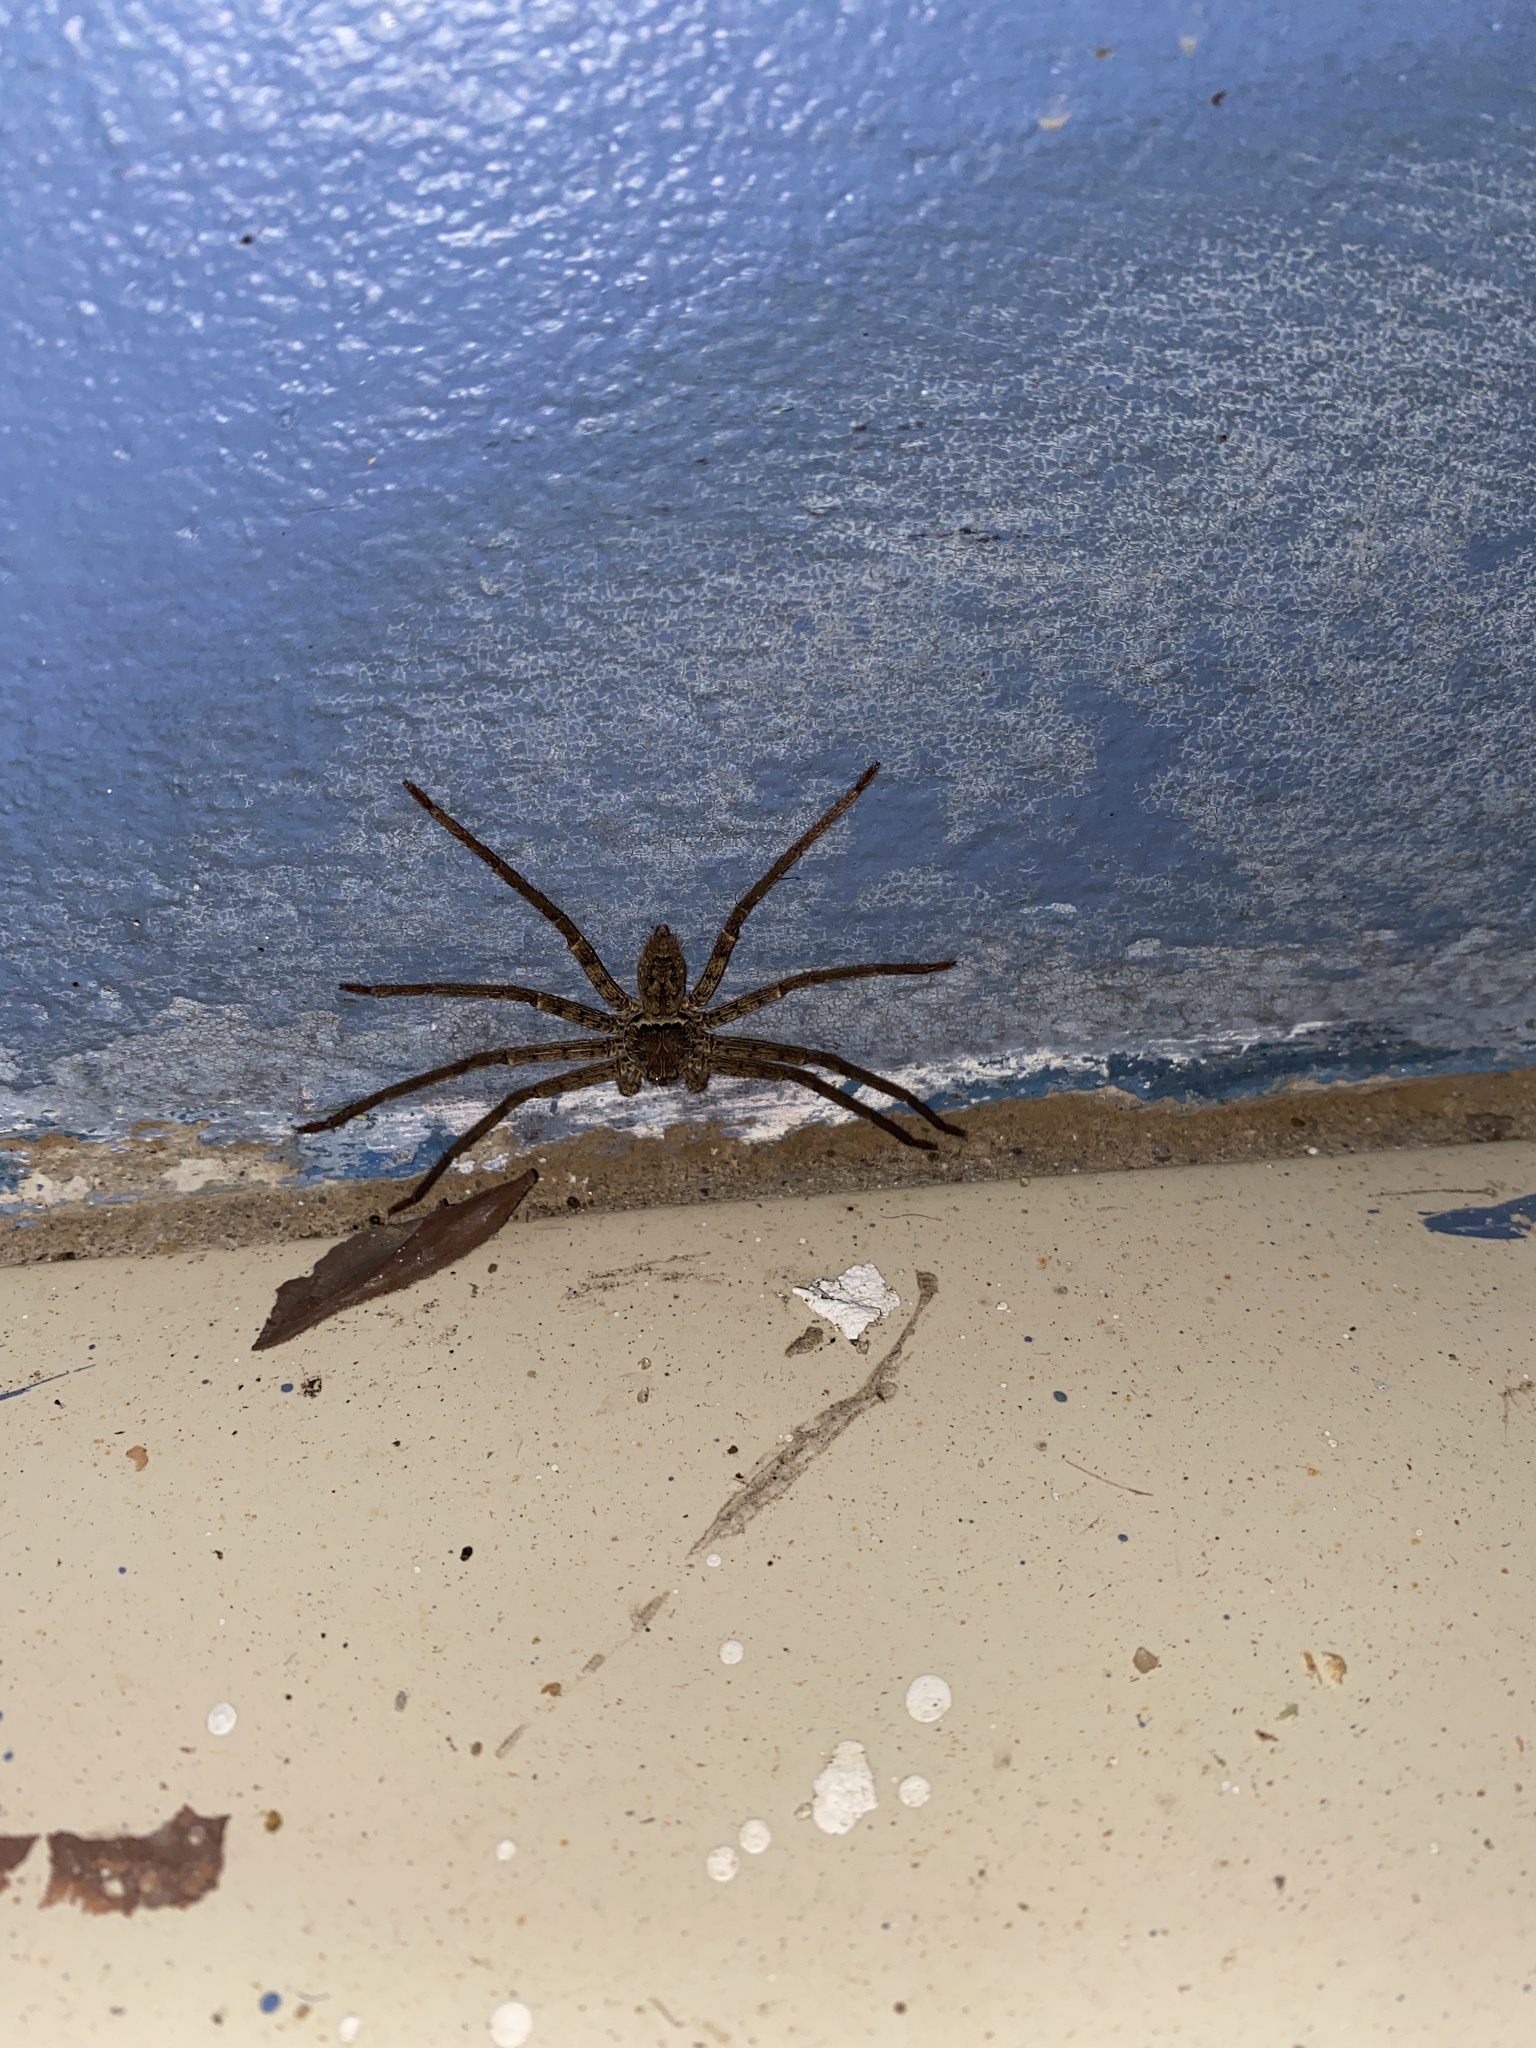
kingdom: Animalia
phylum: Arthropoda
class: Arachnida
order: Araneae
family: Sparassidae
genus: Heteropoda
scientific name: Heteropoda venatoria
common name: Huntsman spider
